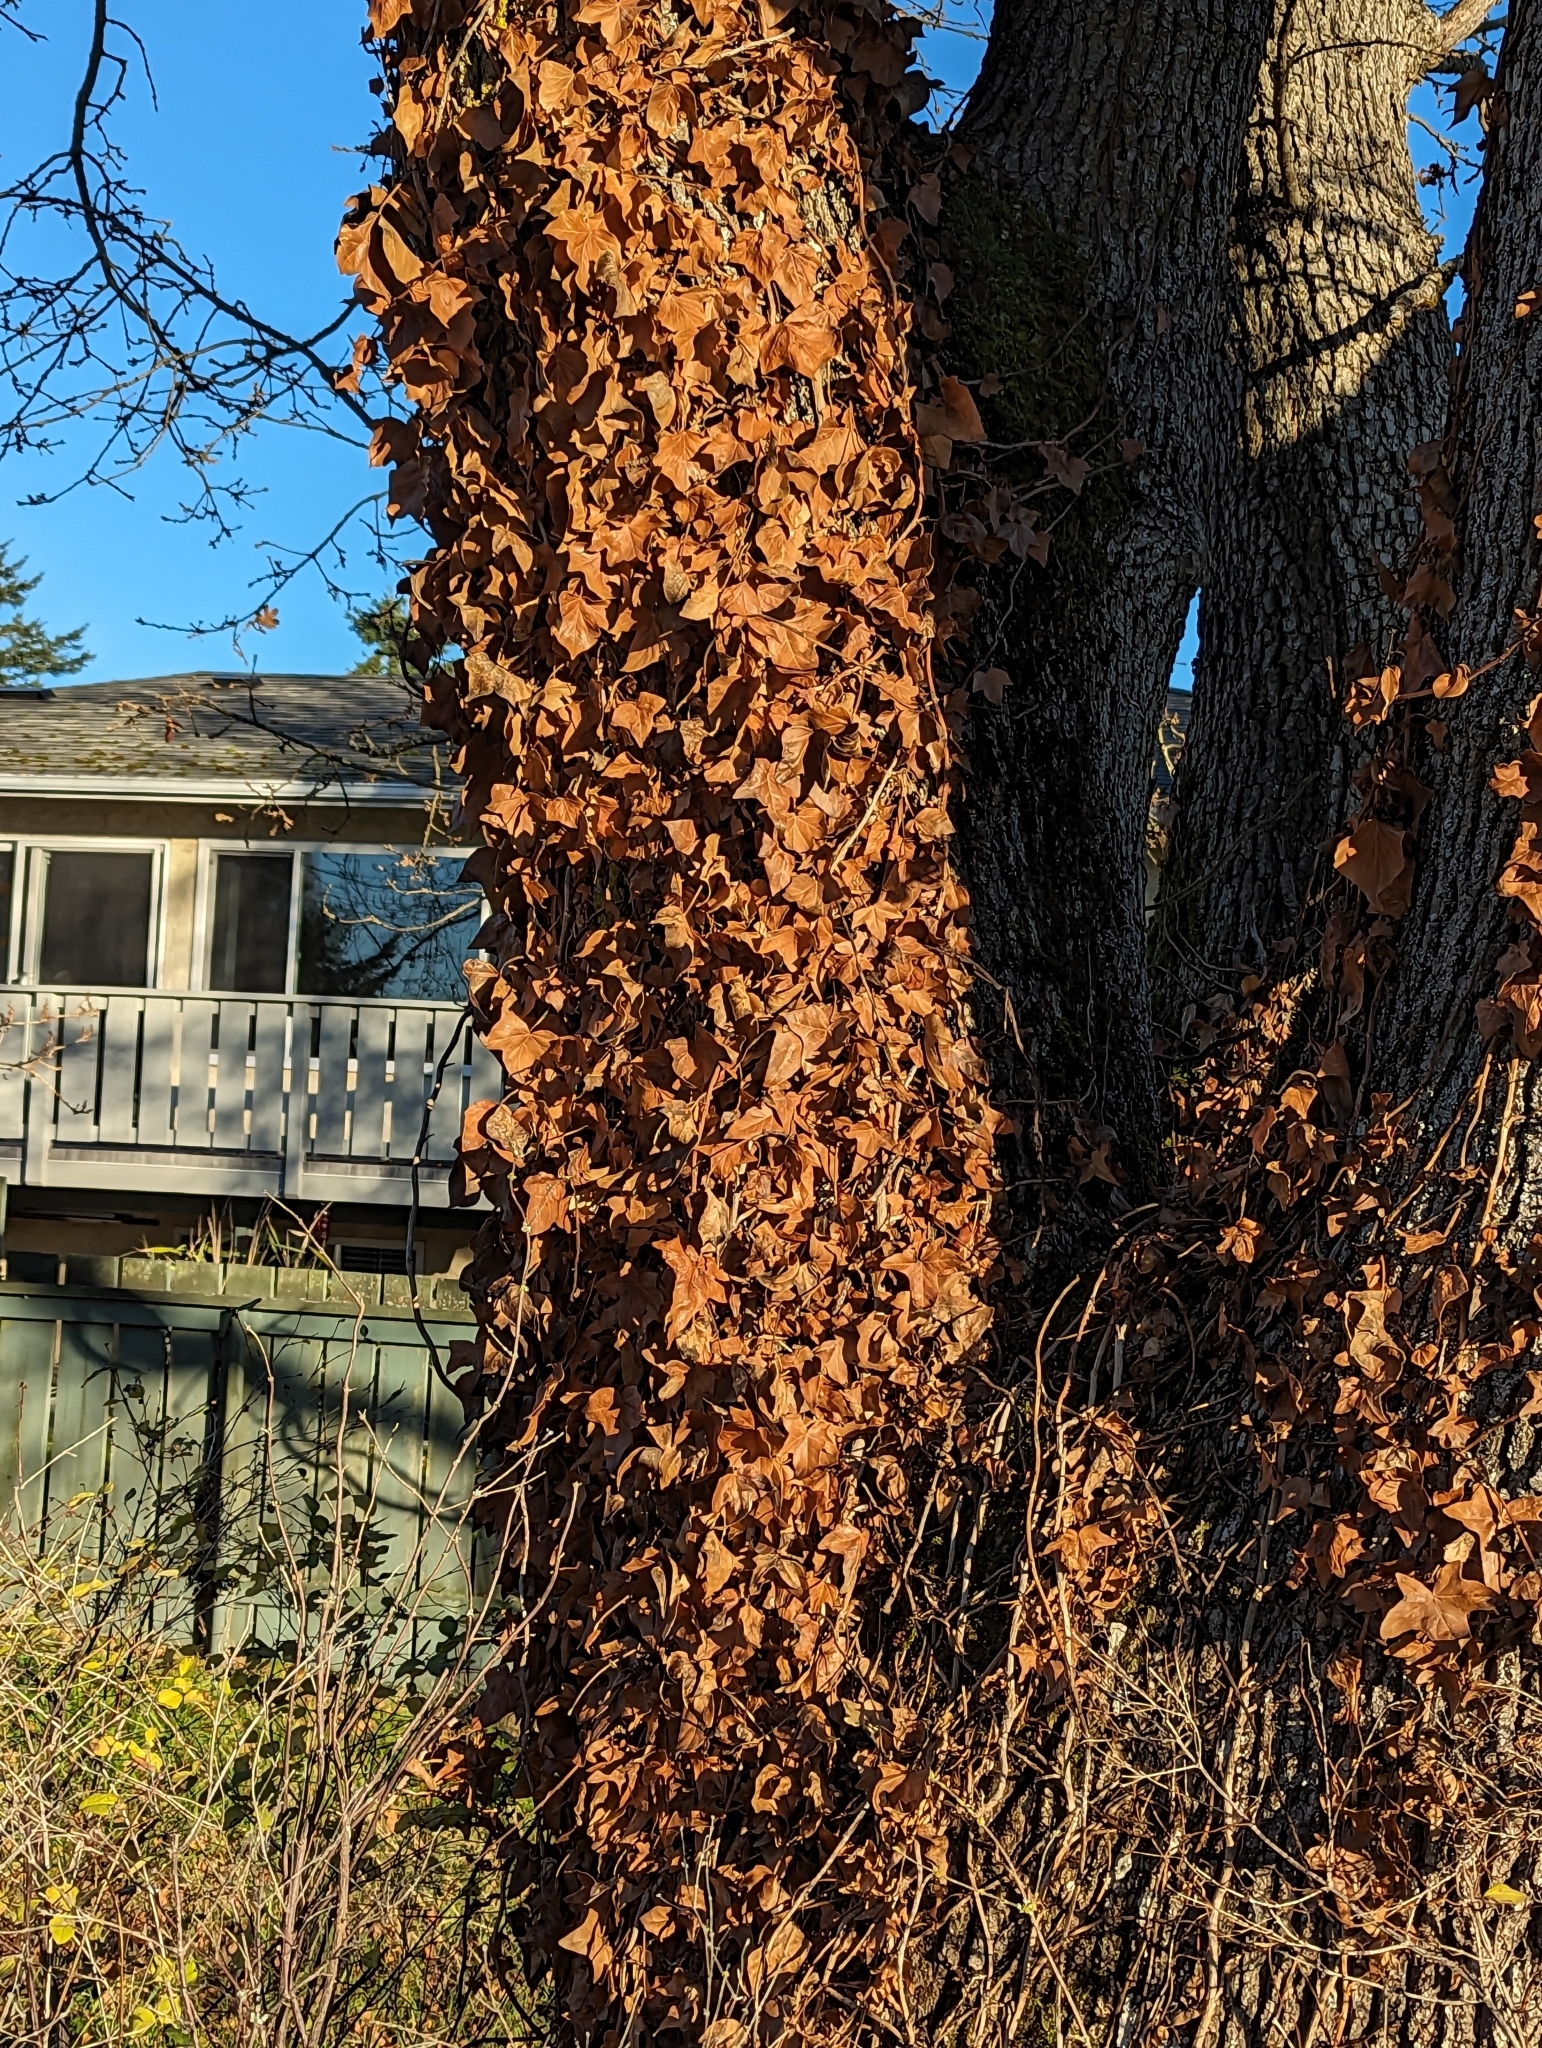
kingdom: Plantae
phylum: Tracheophyta
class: Magnoliopsida
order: Apiales
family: Araliaceae
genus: Hedera
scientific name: Hedera helix
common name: Ivy
